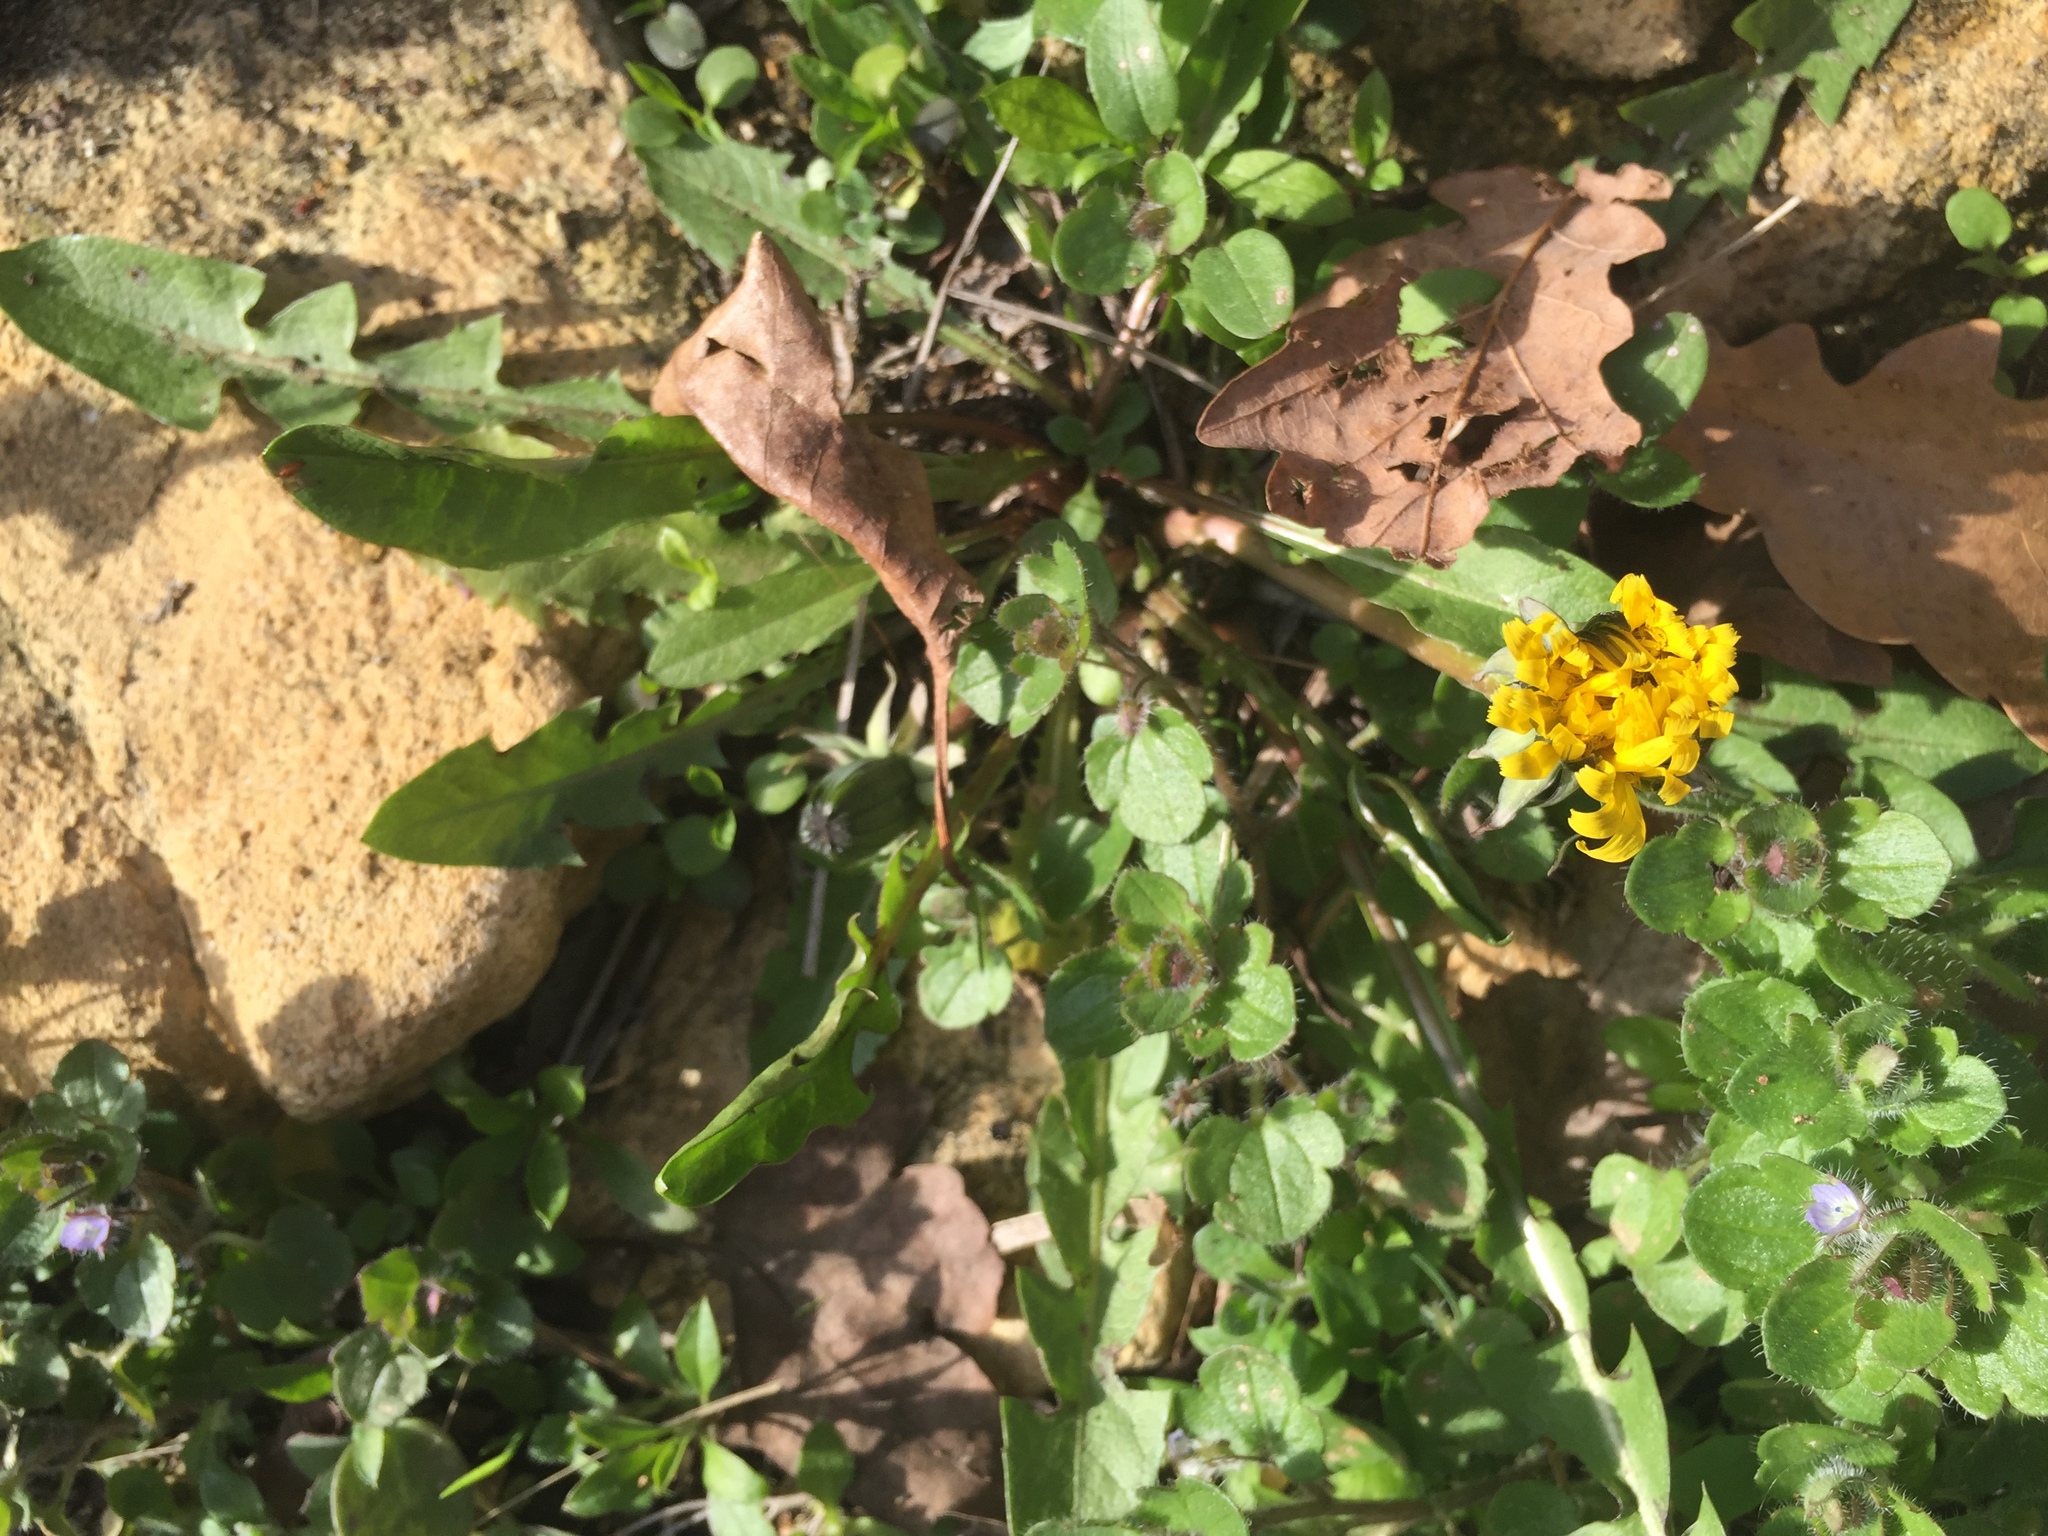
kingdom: Plantae
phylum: Tracheophyta
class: Magnoliopsida
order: Asterales
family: Asteraceae
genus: Taraxacum
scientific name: Taraxacum officinale
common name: Common dandelion
